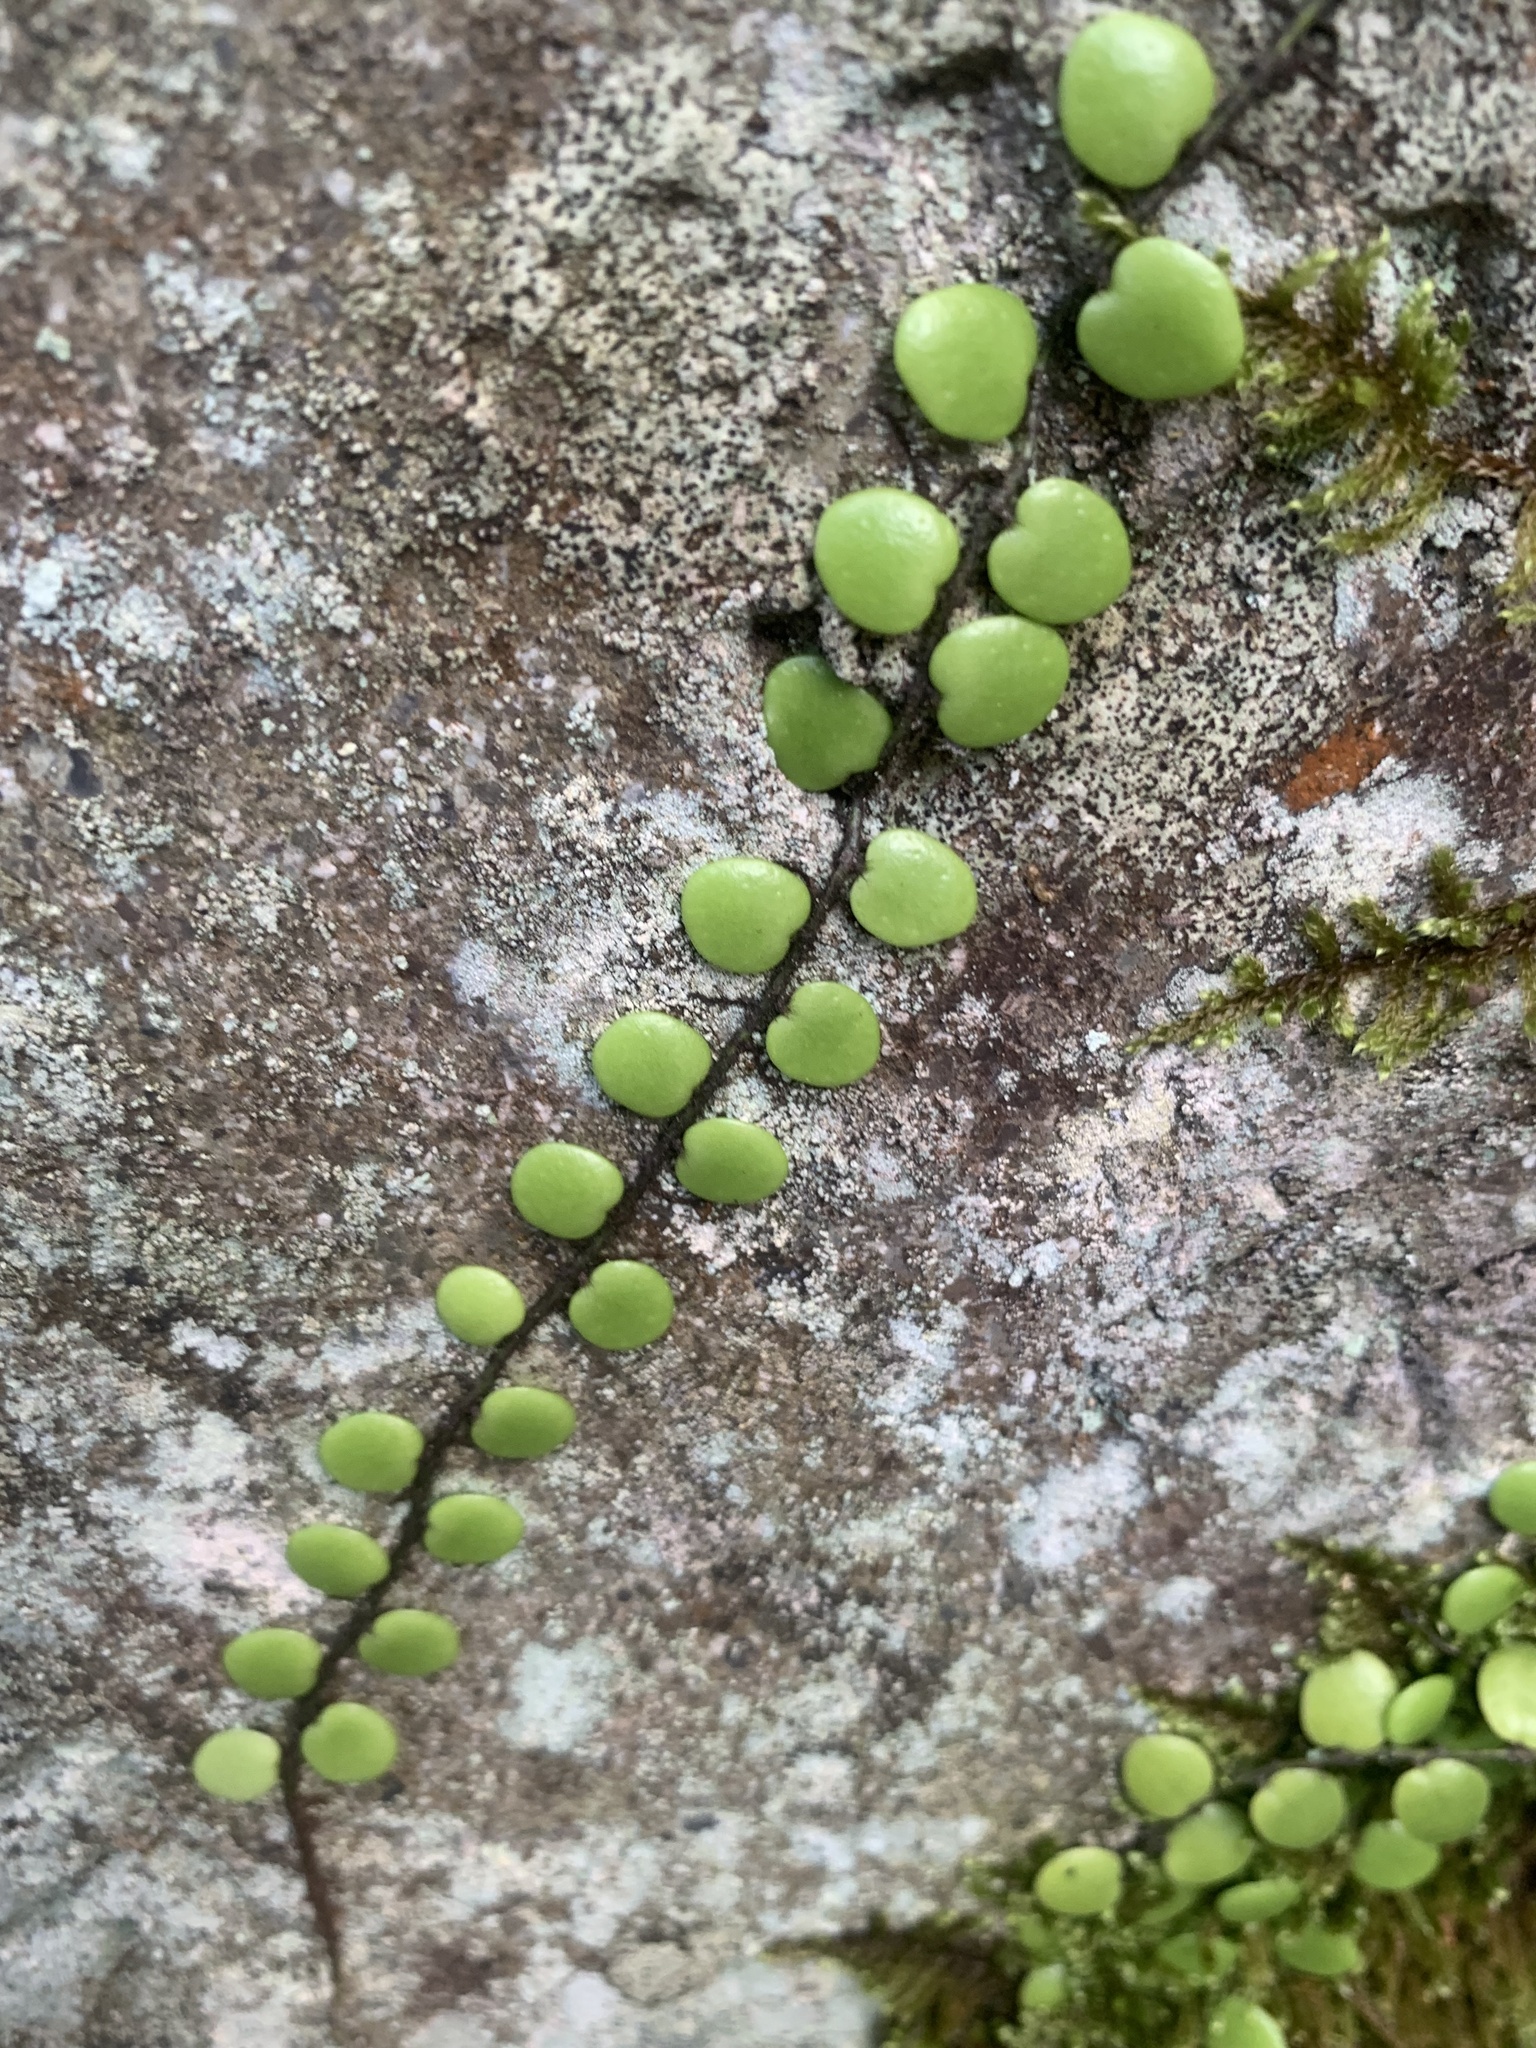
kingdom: Plantae
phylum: Tracheophyta
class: Polypodiopsida
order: Polypodiales
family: Polypodiaceae
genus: Lepisorus
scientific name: Lepisorus microphyllus
